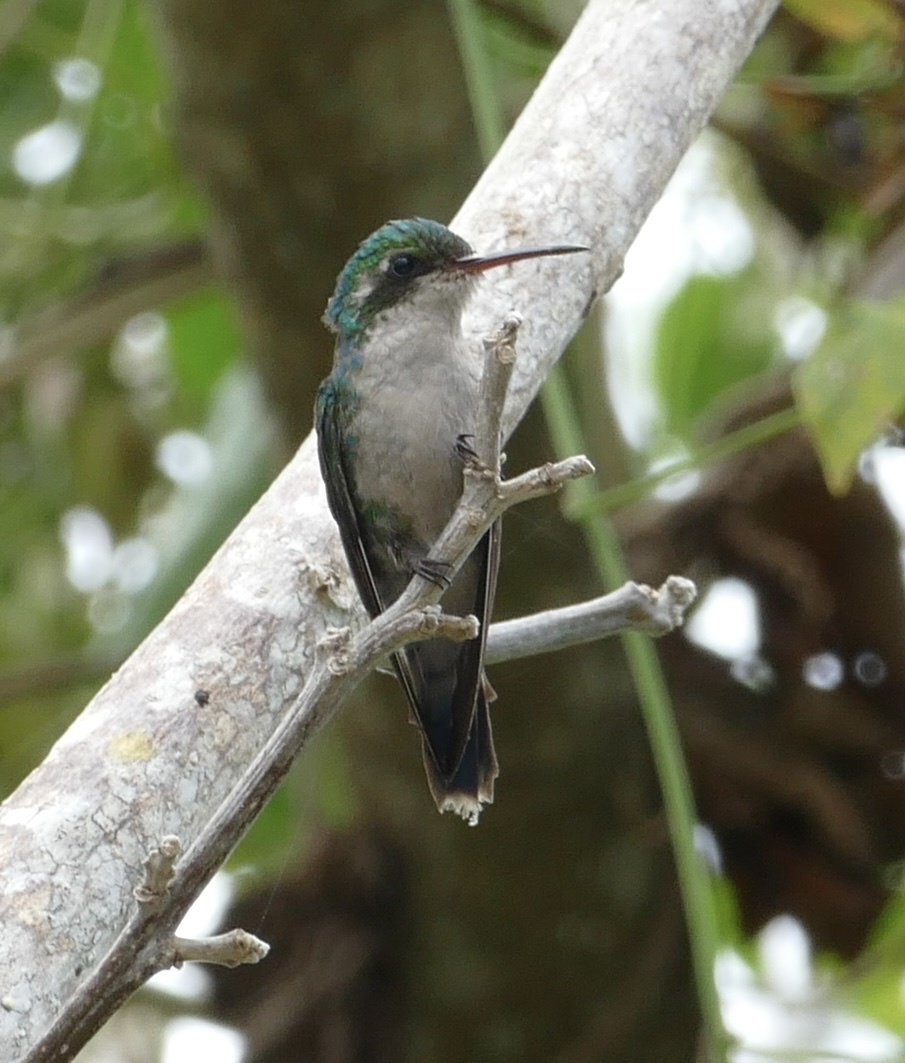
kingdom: Animalia
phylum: Chordata
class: Aves
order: Apodiformes
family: Trochilidae
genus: Cynanthus
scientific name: Cynanthus forficatus
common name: Cozumel emerald
